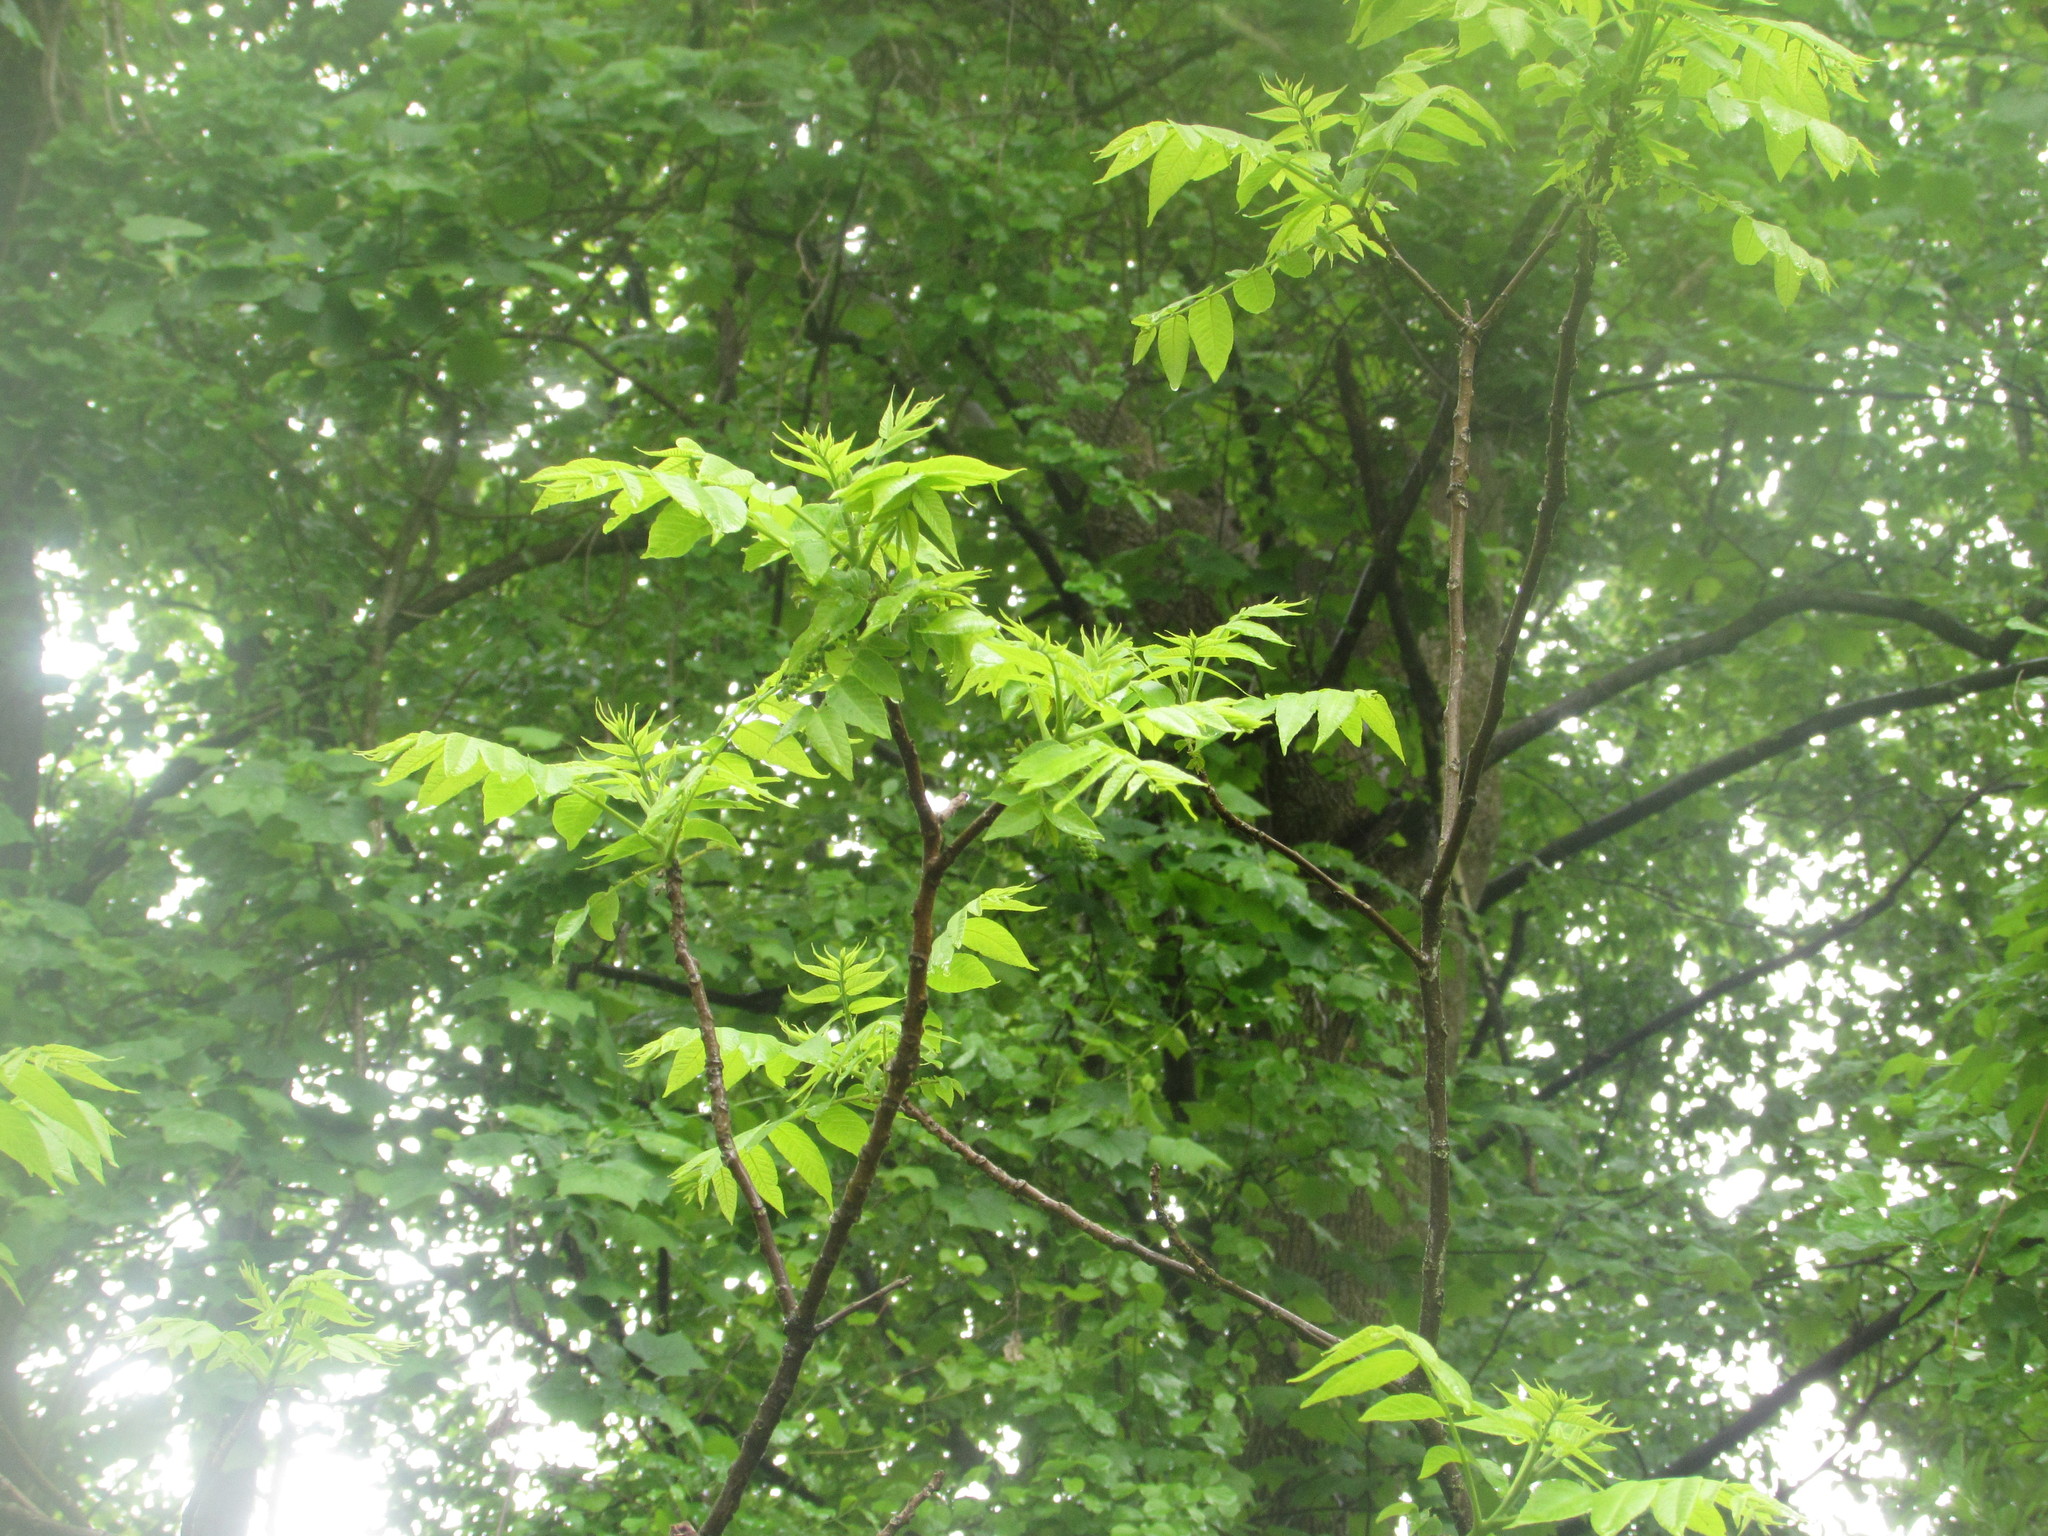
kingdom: Plantae
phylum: Tracheophyta
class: Magnoliopsida
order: Fagales
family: Juglandaceae
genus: Juglans
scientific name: Juglans nigra
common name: Black walnut
